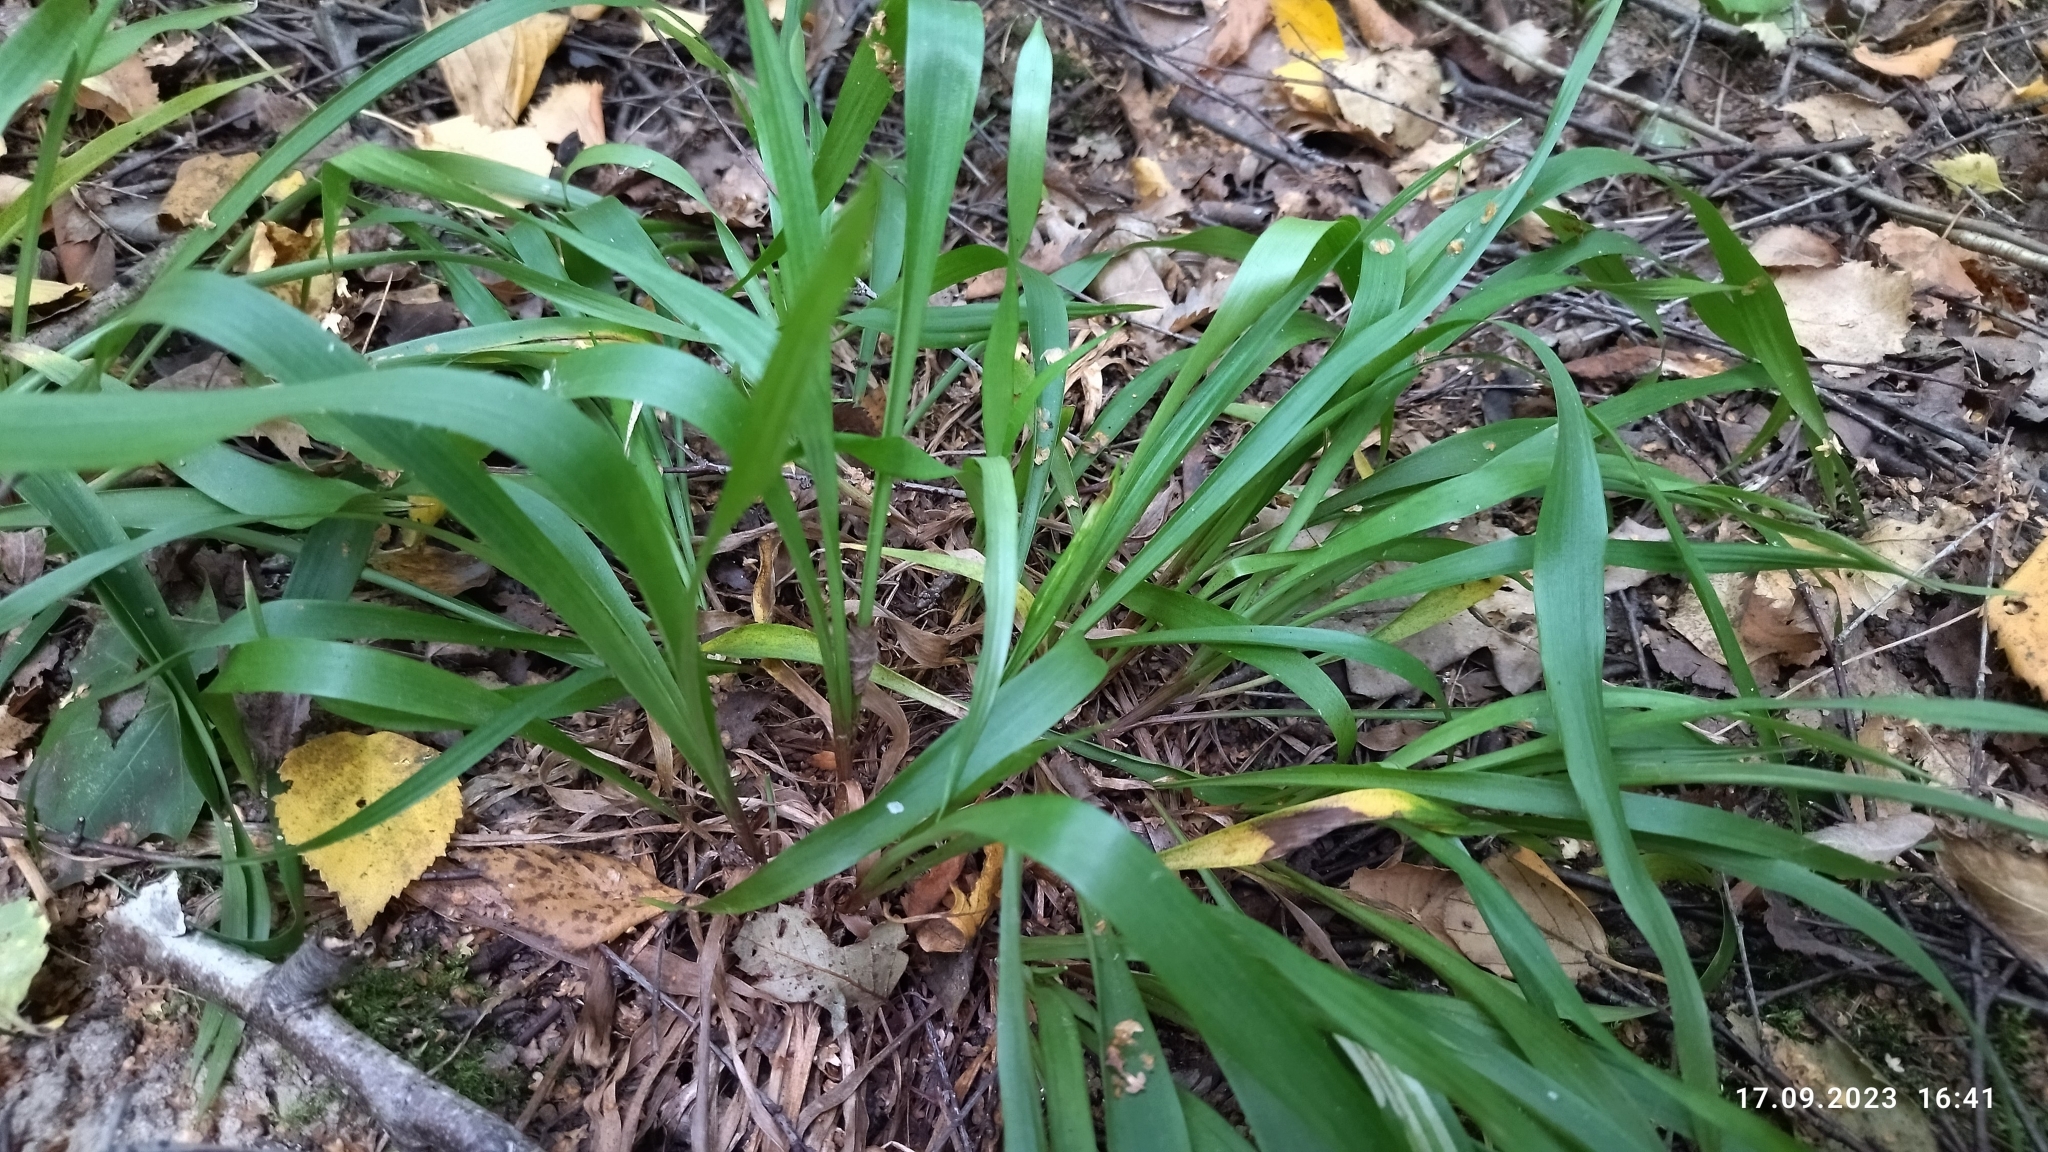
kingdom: Plantae
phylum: Tracheophyta
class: Liliopsida
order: Poales
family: Juncaceae
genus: Luzula
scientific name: Luzula pilosa
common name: Hairy wood-rush
